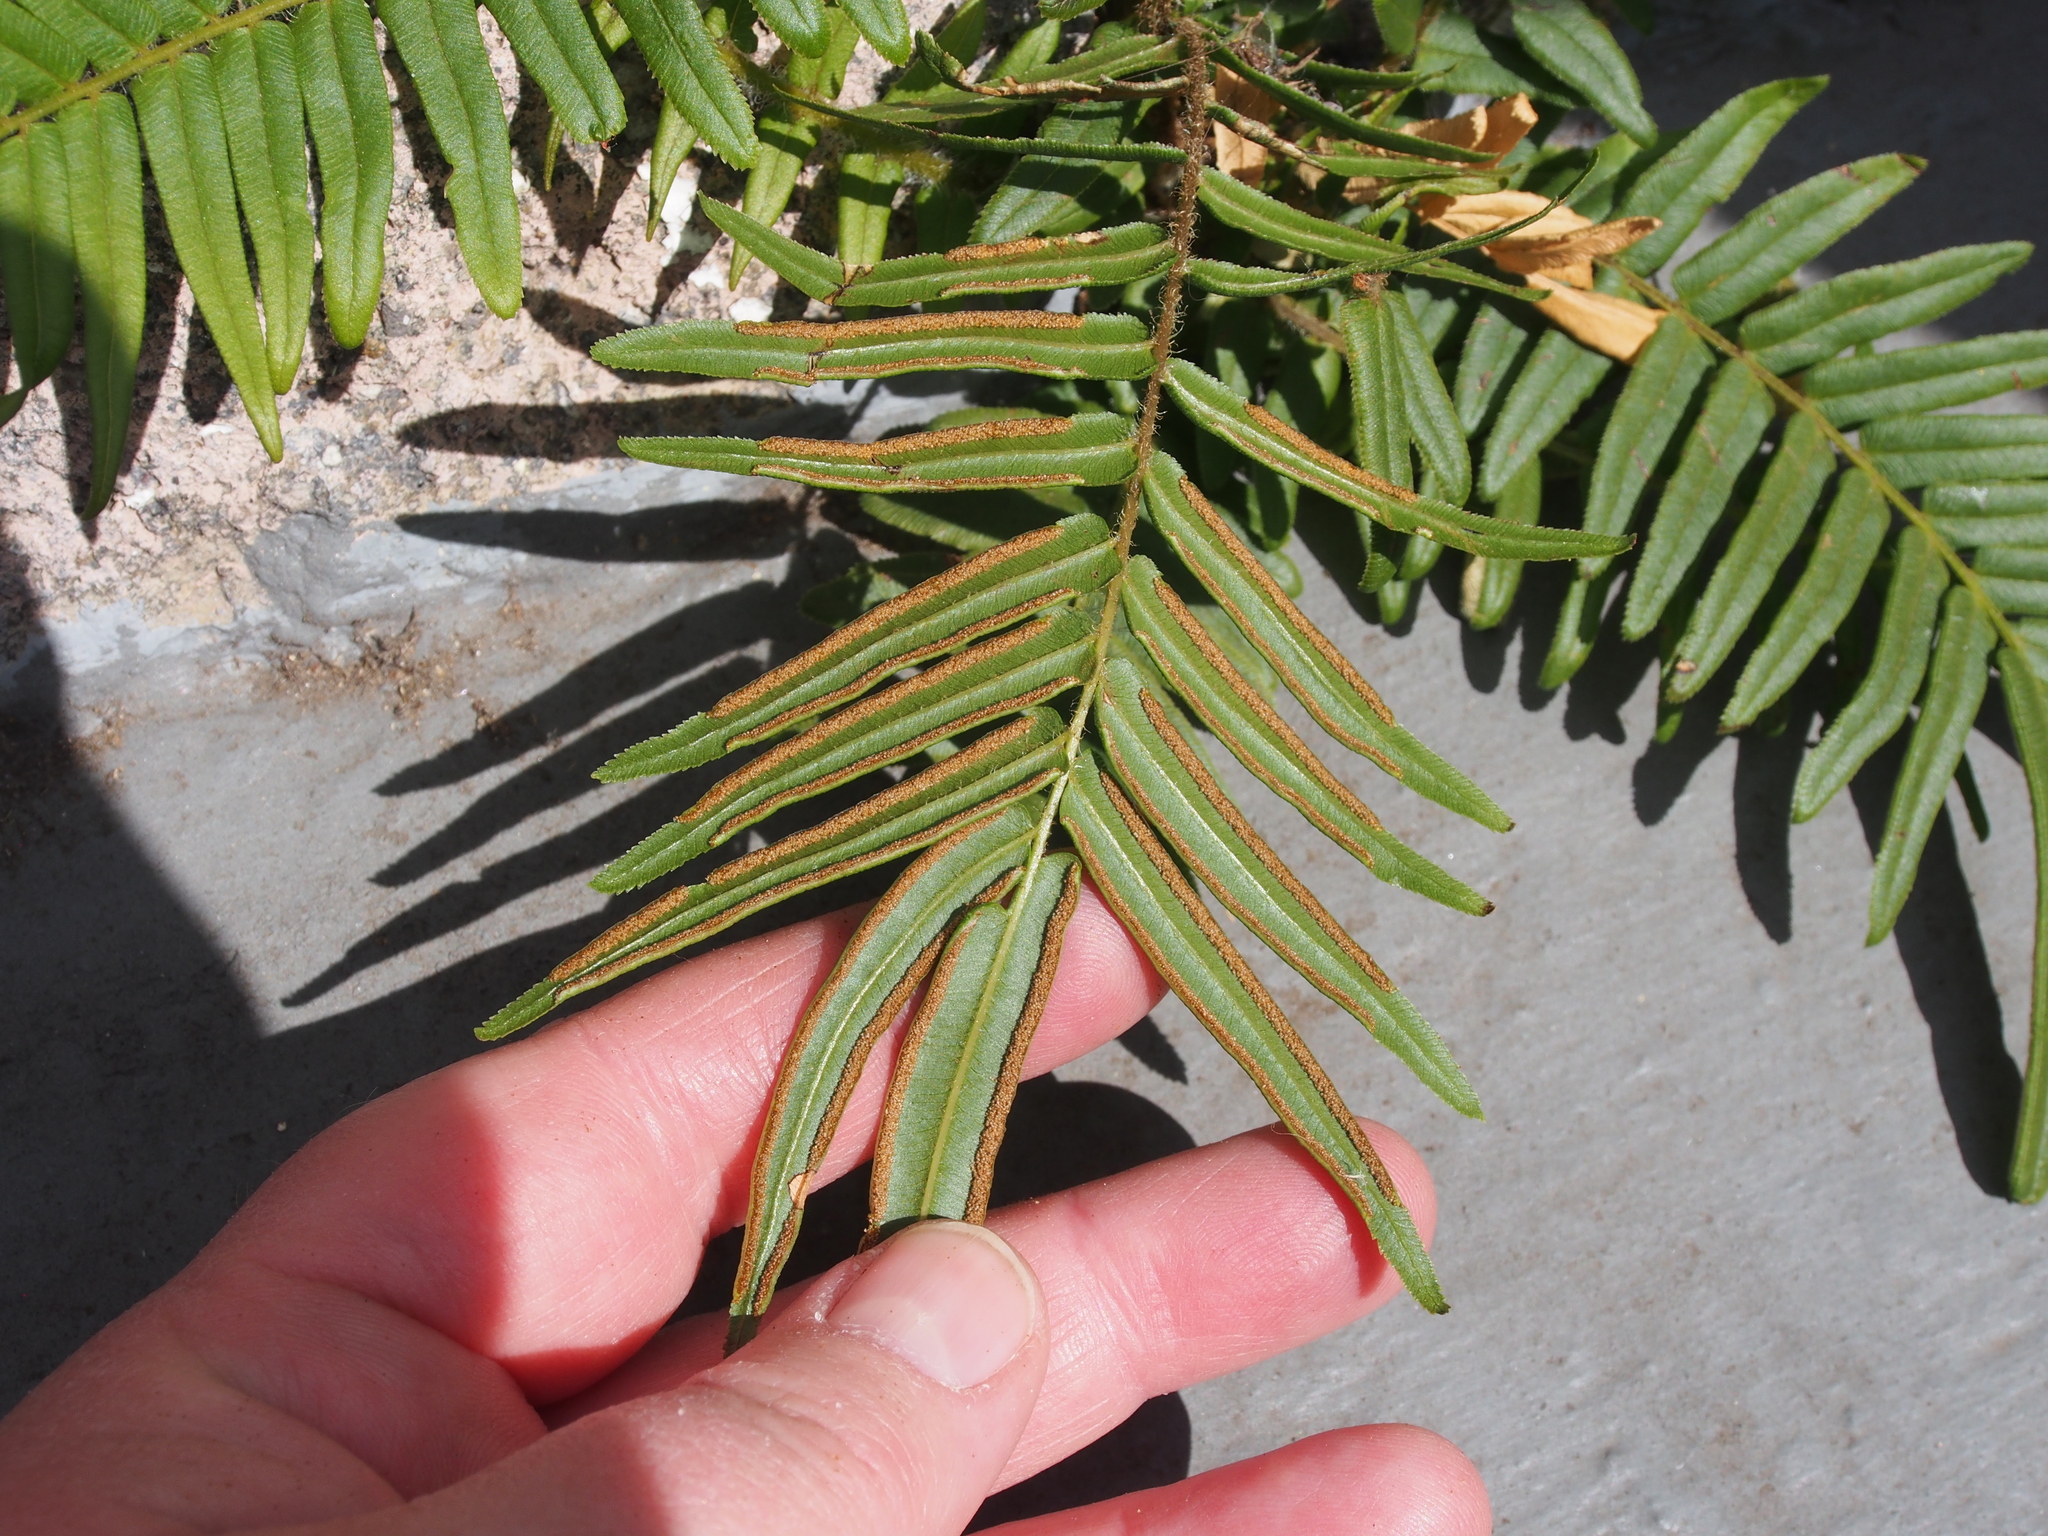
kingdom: Plantae
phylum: Tracheophyta
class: Polypodiopsida
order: Polypodiales
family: Pteridaceae
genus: Pteris
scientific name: Pteris vittata
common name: Ladder brake
